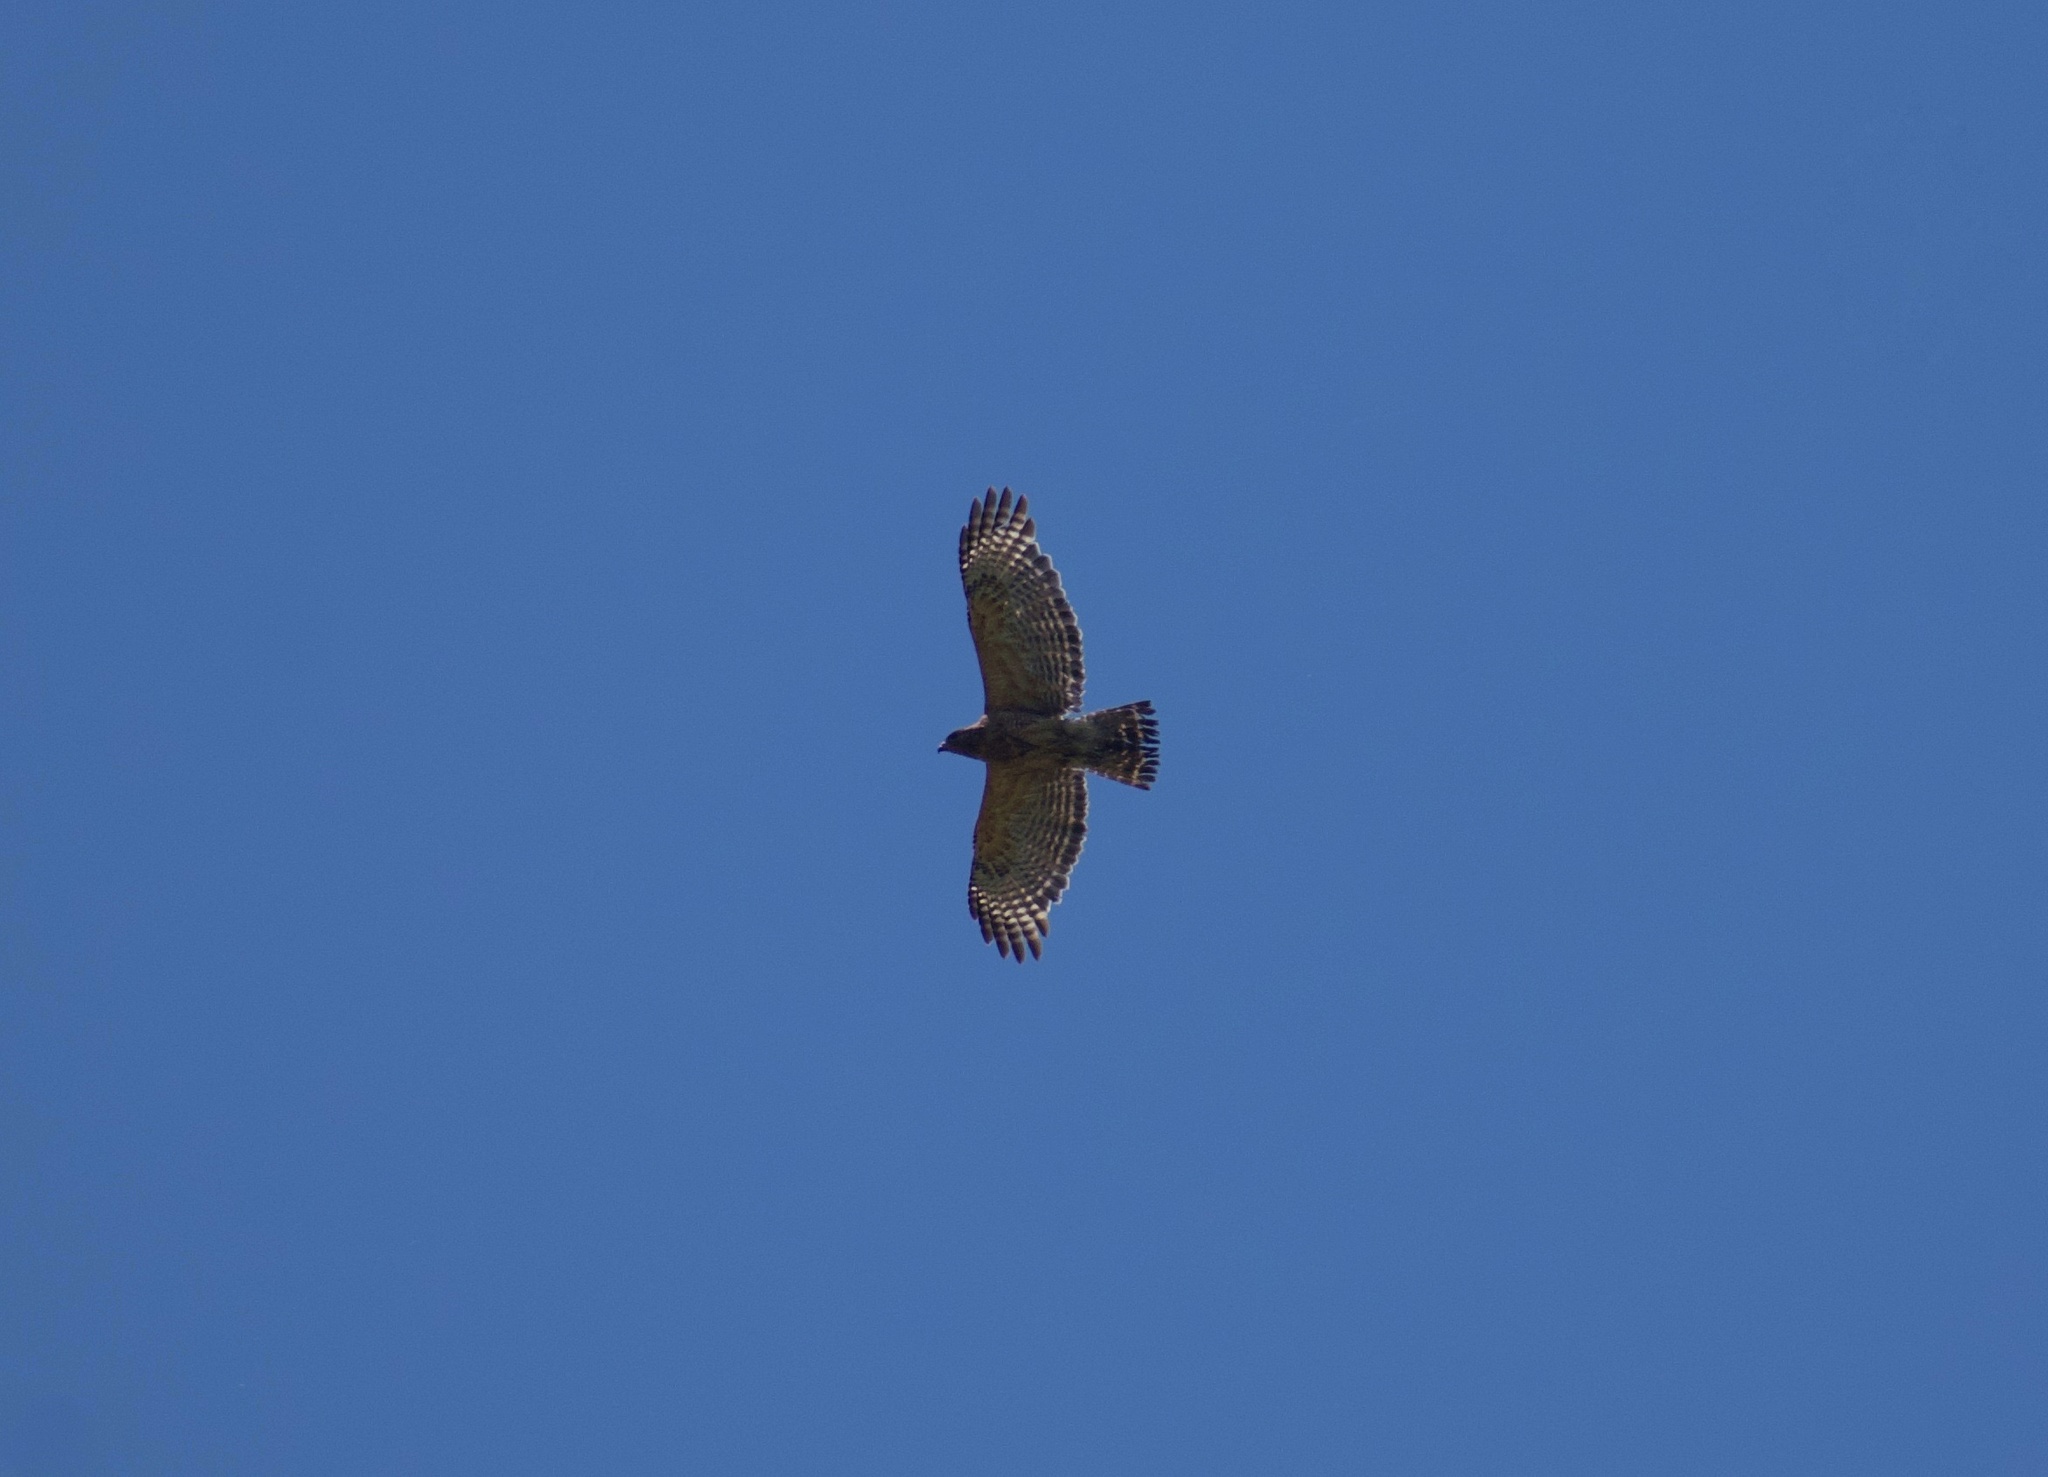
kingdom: Animalia
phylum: Chordata
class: Aves
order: Accipitriformes
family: Accipitridae
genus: Buteo
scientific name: Buteo lineatus
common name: Red-shouldered hawk
